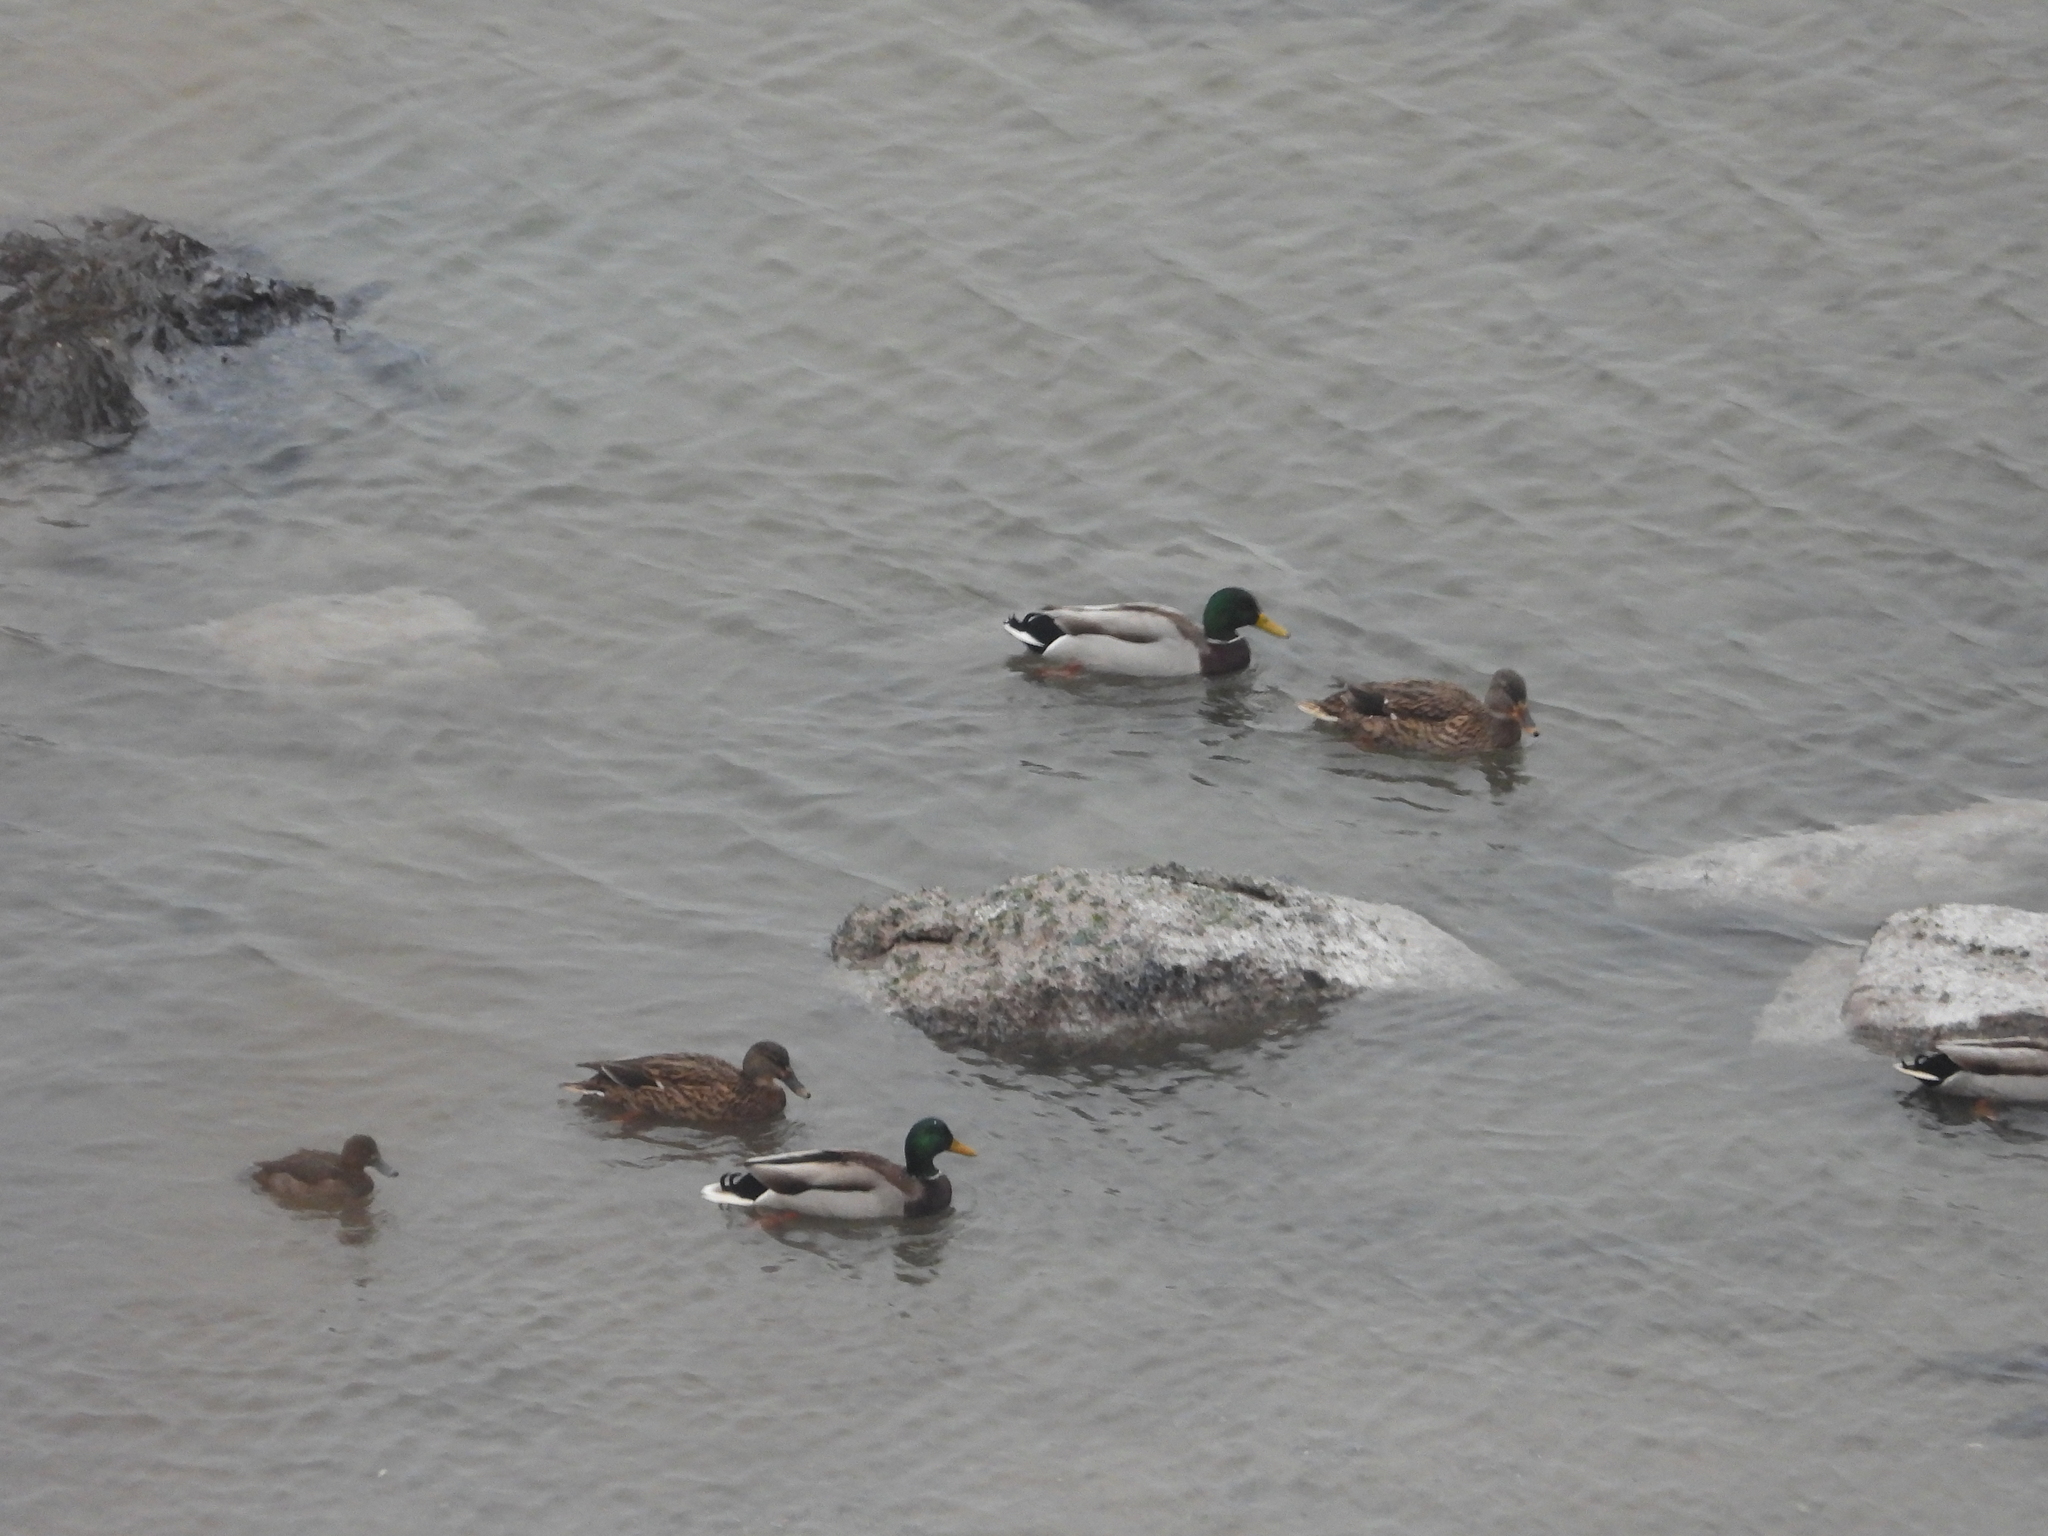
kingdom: Animalia
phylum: Chordata
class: Aves
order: Anseriformes
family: Anatidae
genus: Aythya
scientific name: Aythya fuligula
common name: Tufted duck
